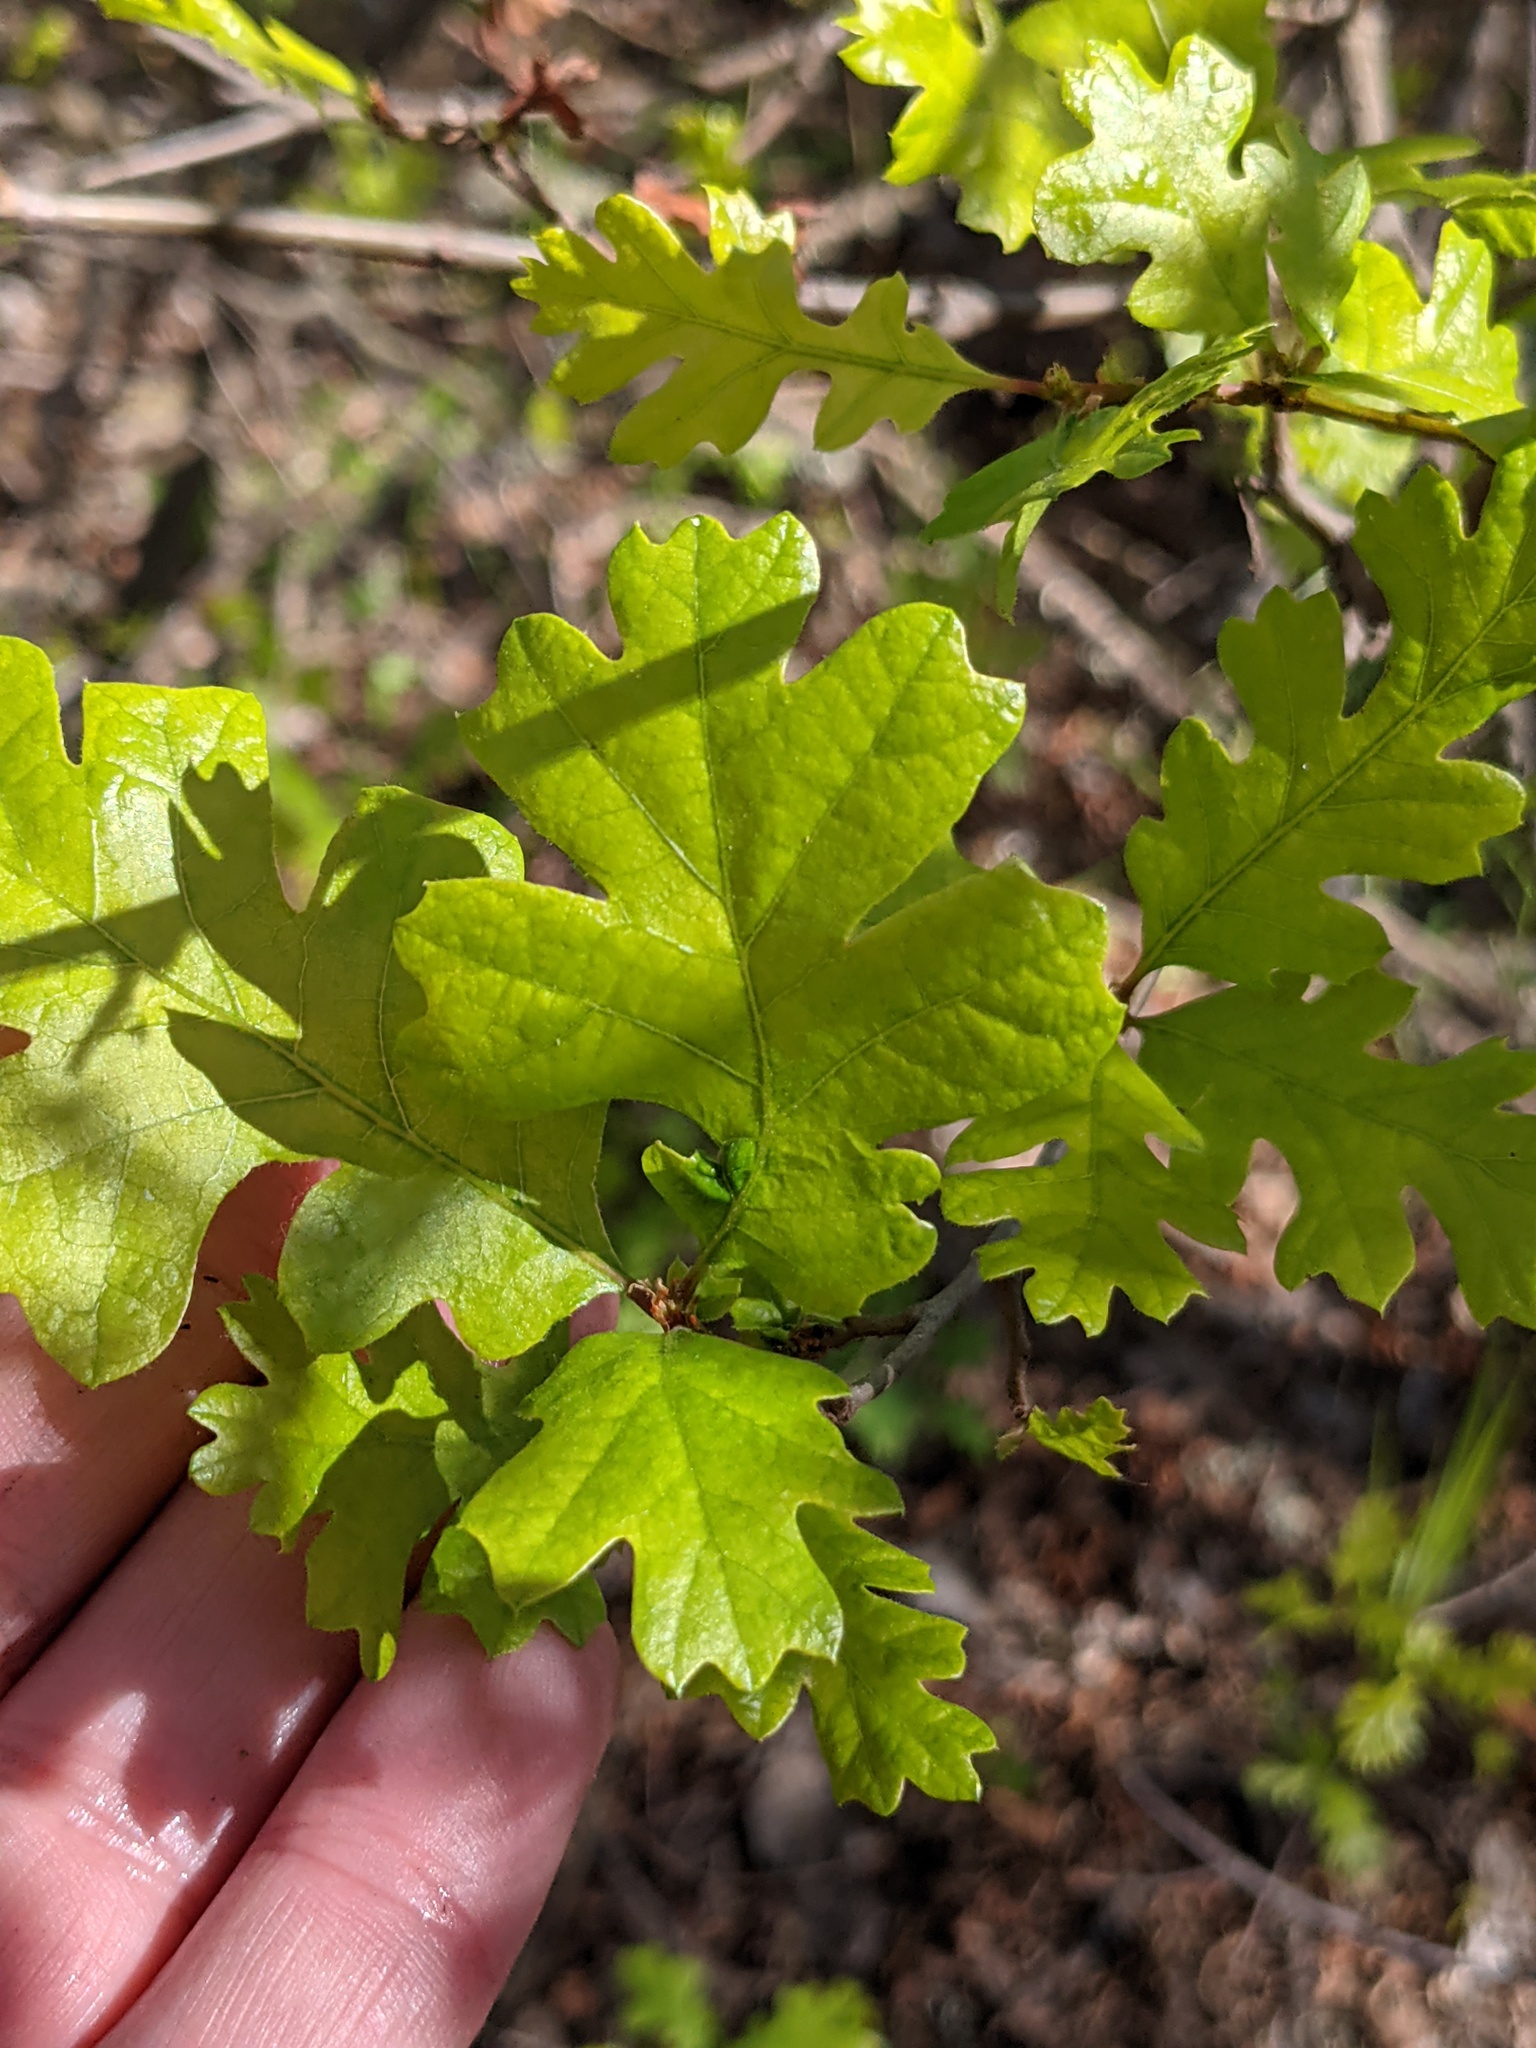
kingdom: Plantae
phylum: Tracheophyta
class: Magnoliopsida
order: Fagales
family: Fagaceae
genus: Quercus
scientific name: Quercus lobata
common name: Valley oak
